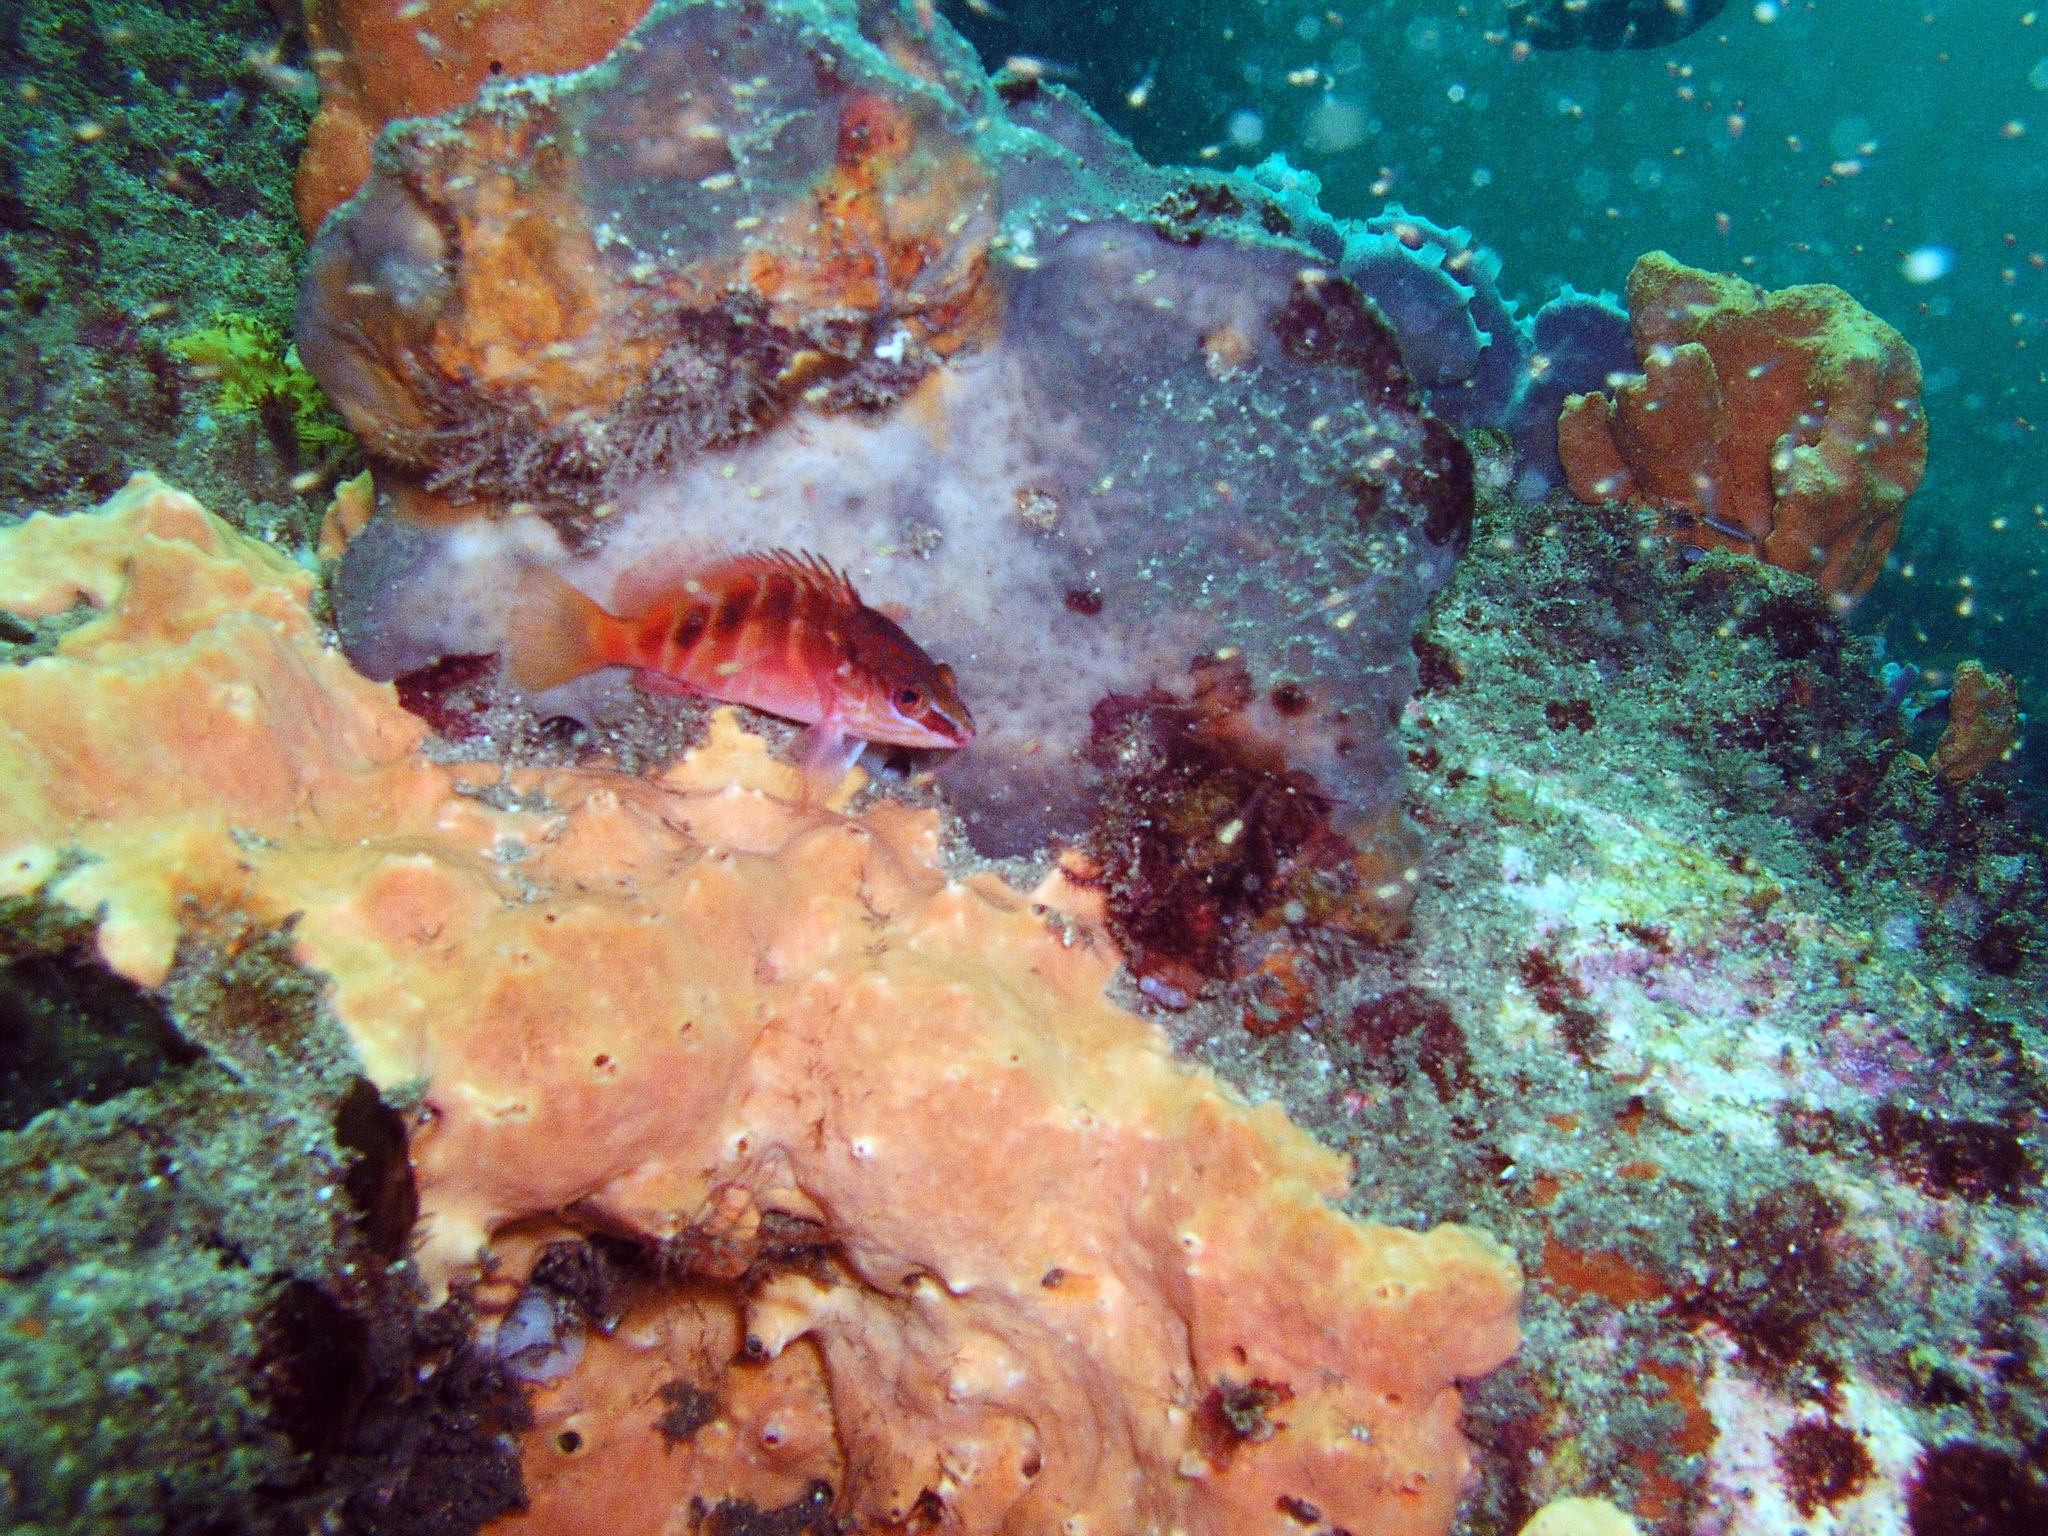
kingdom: Animalia
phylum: Chordata
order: Perciformes
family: Serranidae
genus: Hypoplectrodes
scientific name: Hypoplectrodes maccullochi
